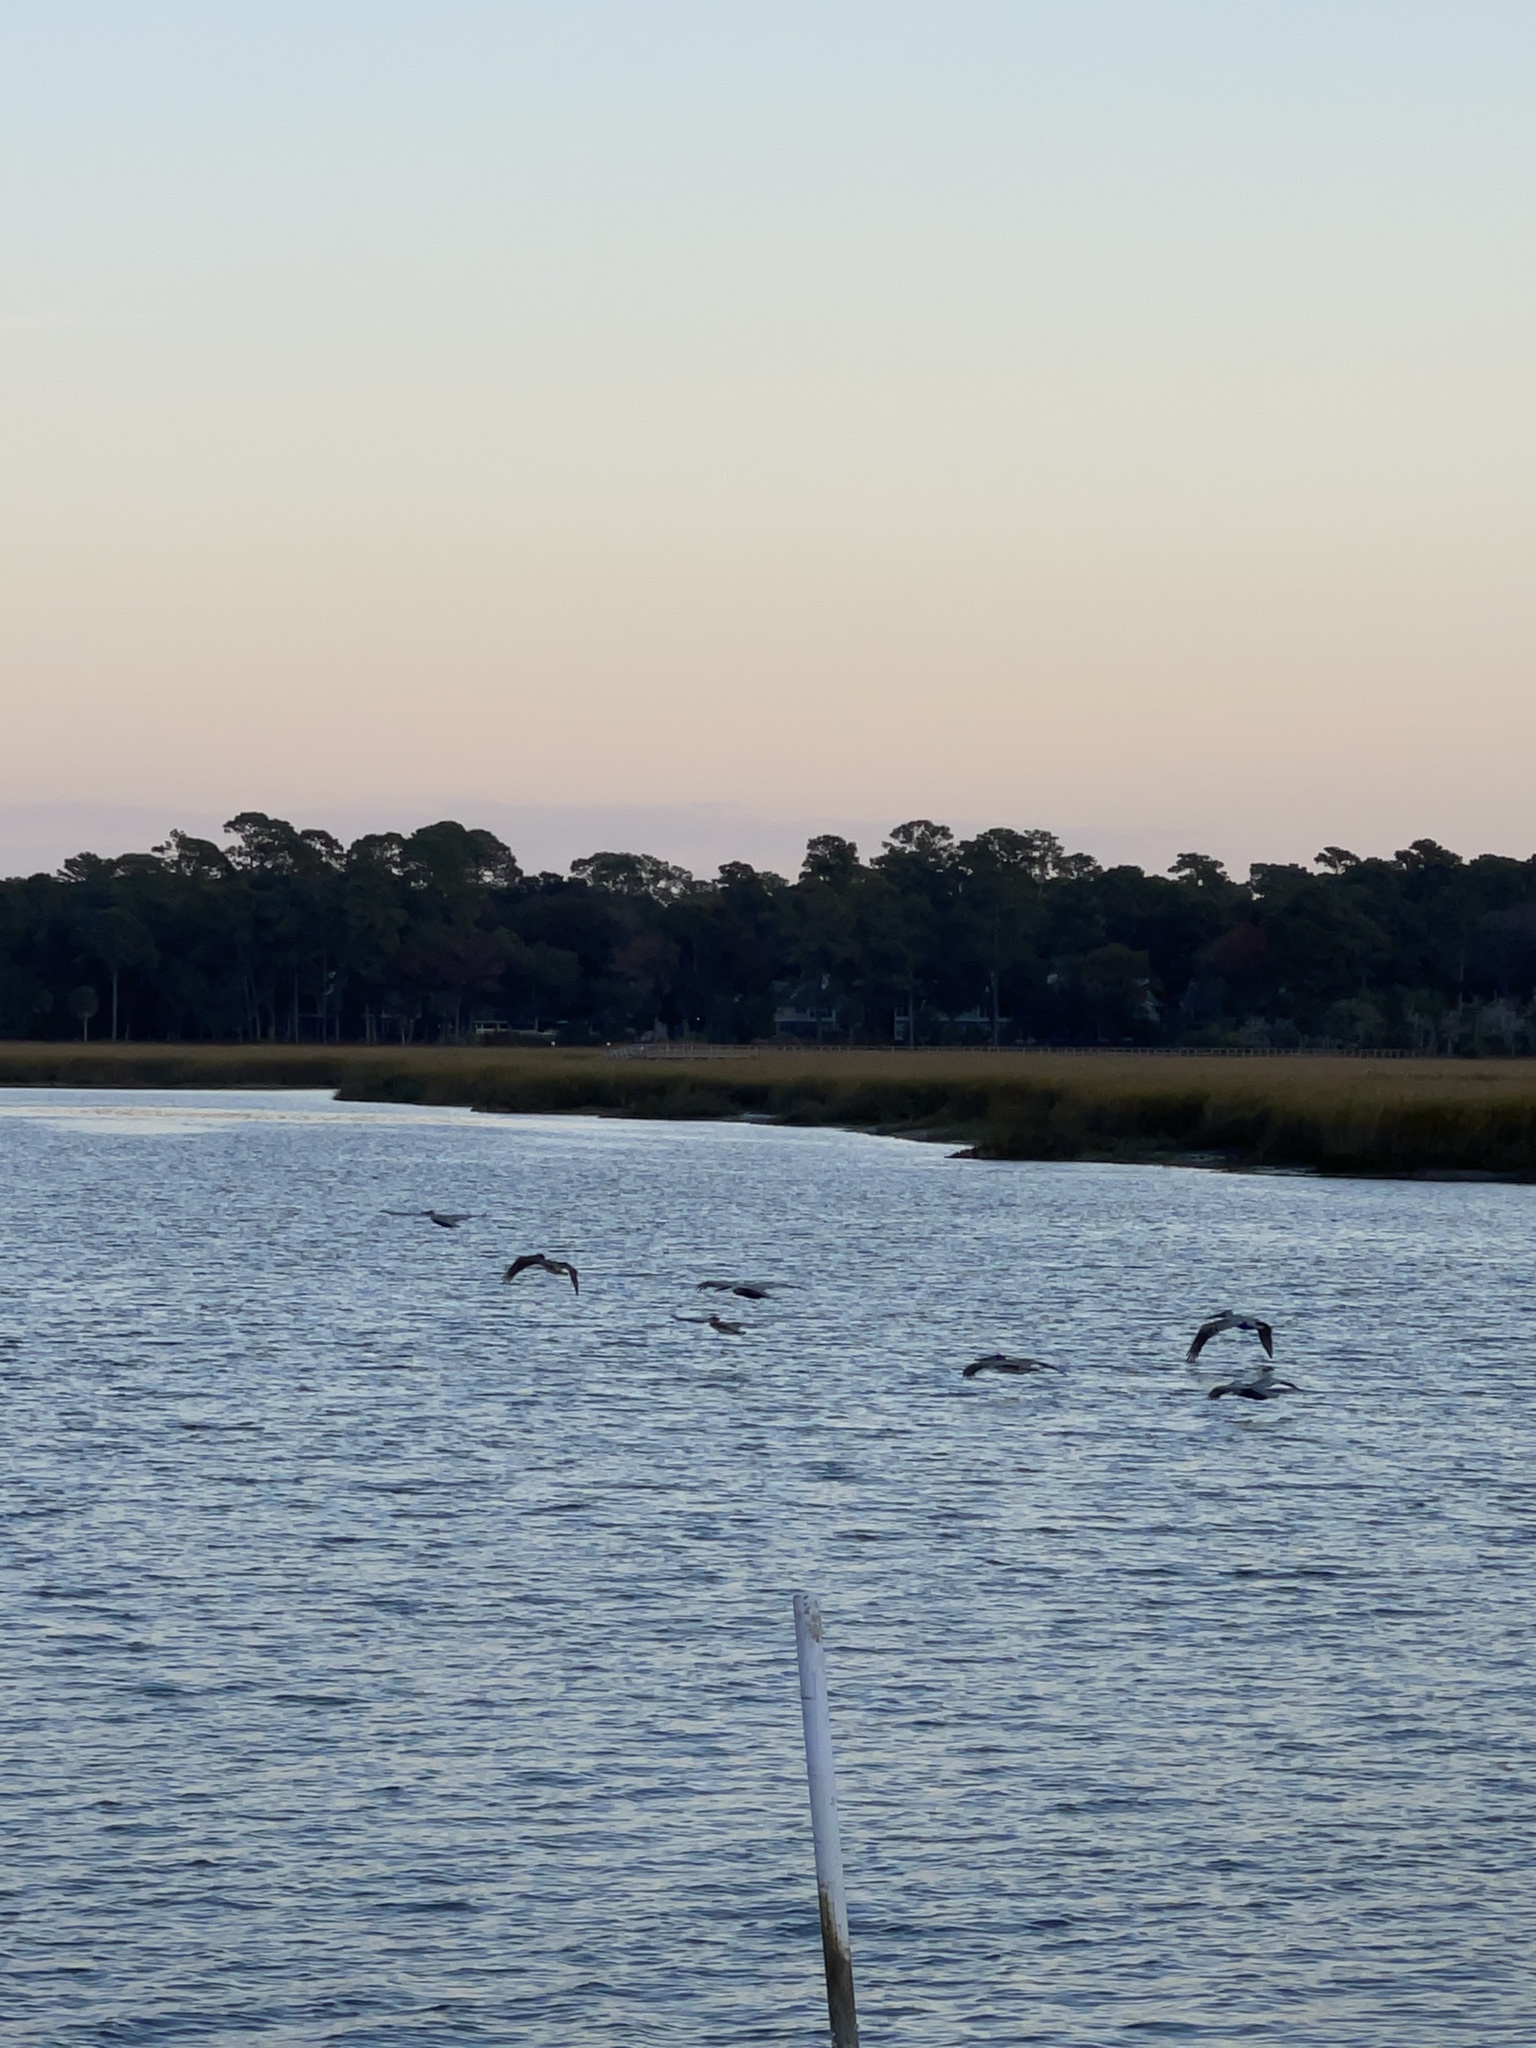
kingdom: Animalia
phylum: Chordata
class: Aves
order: Pelecaniformes
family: Pelecanidae
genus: Pelecanus
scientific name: Pelecanus occidentalis
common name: Brown pelican
